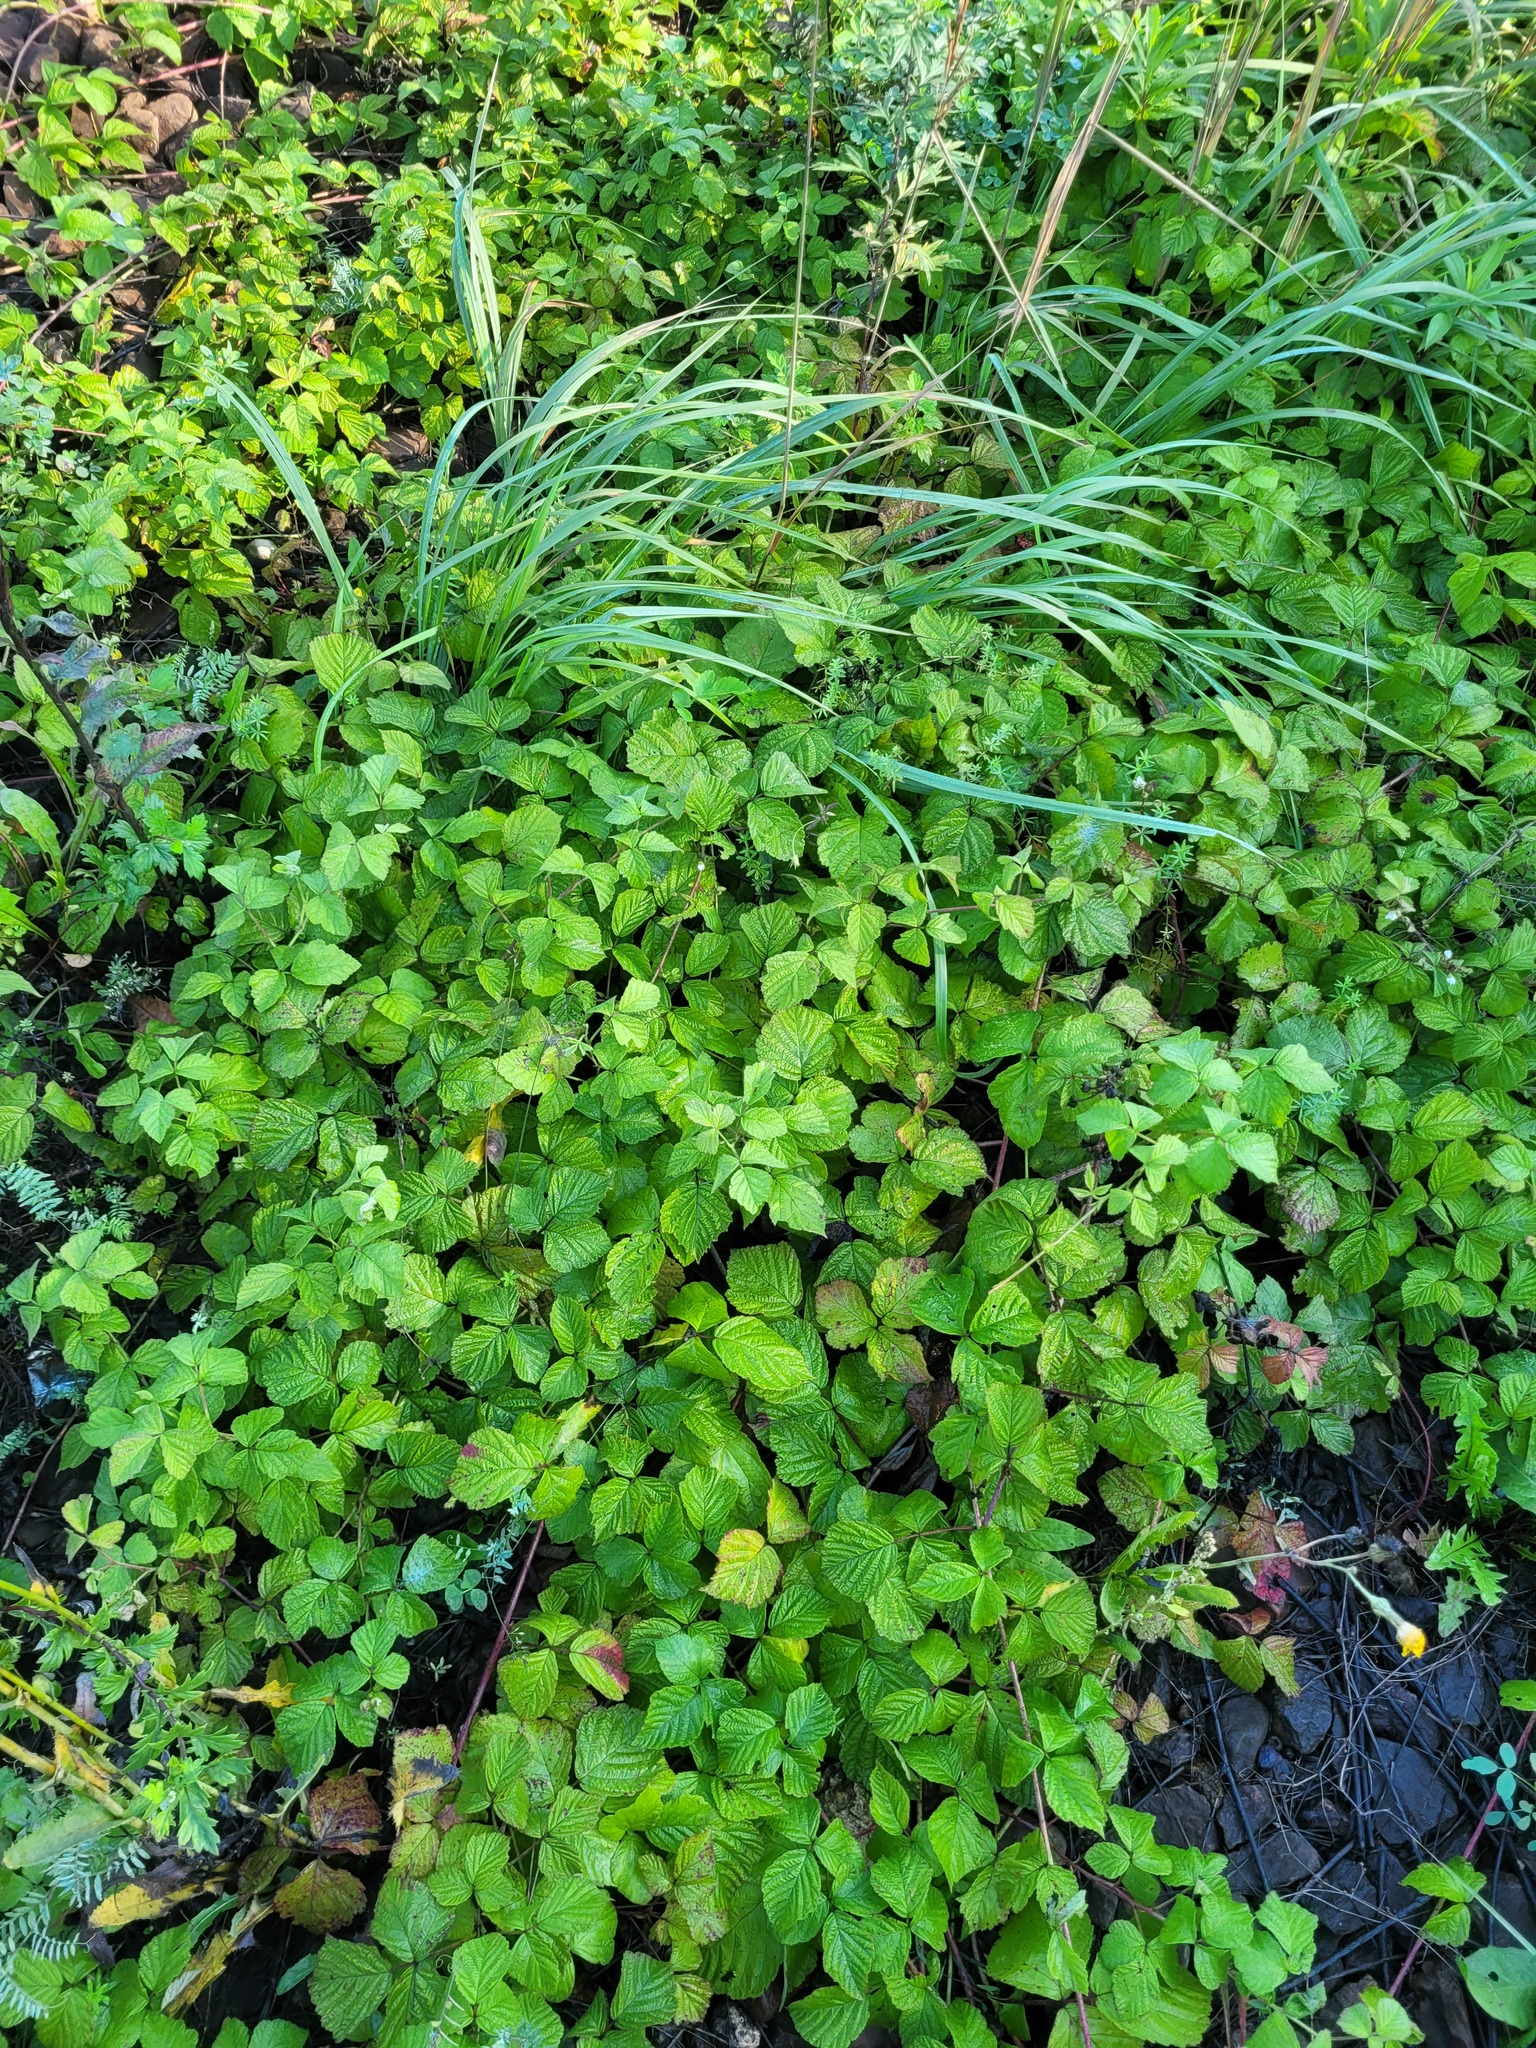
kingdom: Plantae
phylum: Tracheophyta
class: Magnoliopsida
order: Rosales
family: Rosaceae
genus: Rubus
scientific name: Rubus caesius
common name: Dewberry
